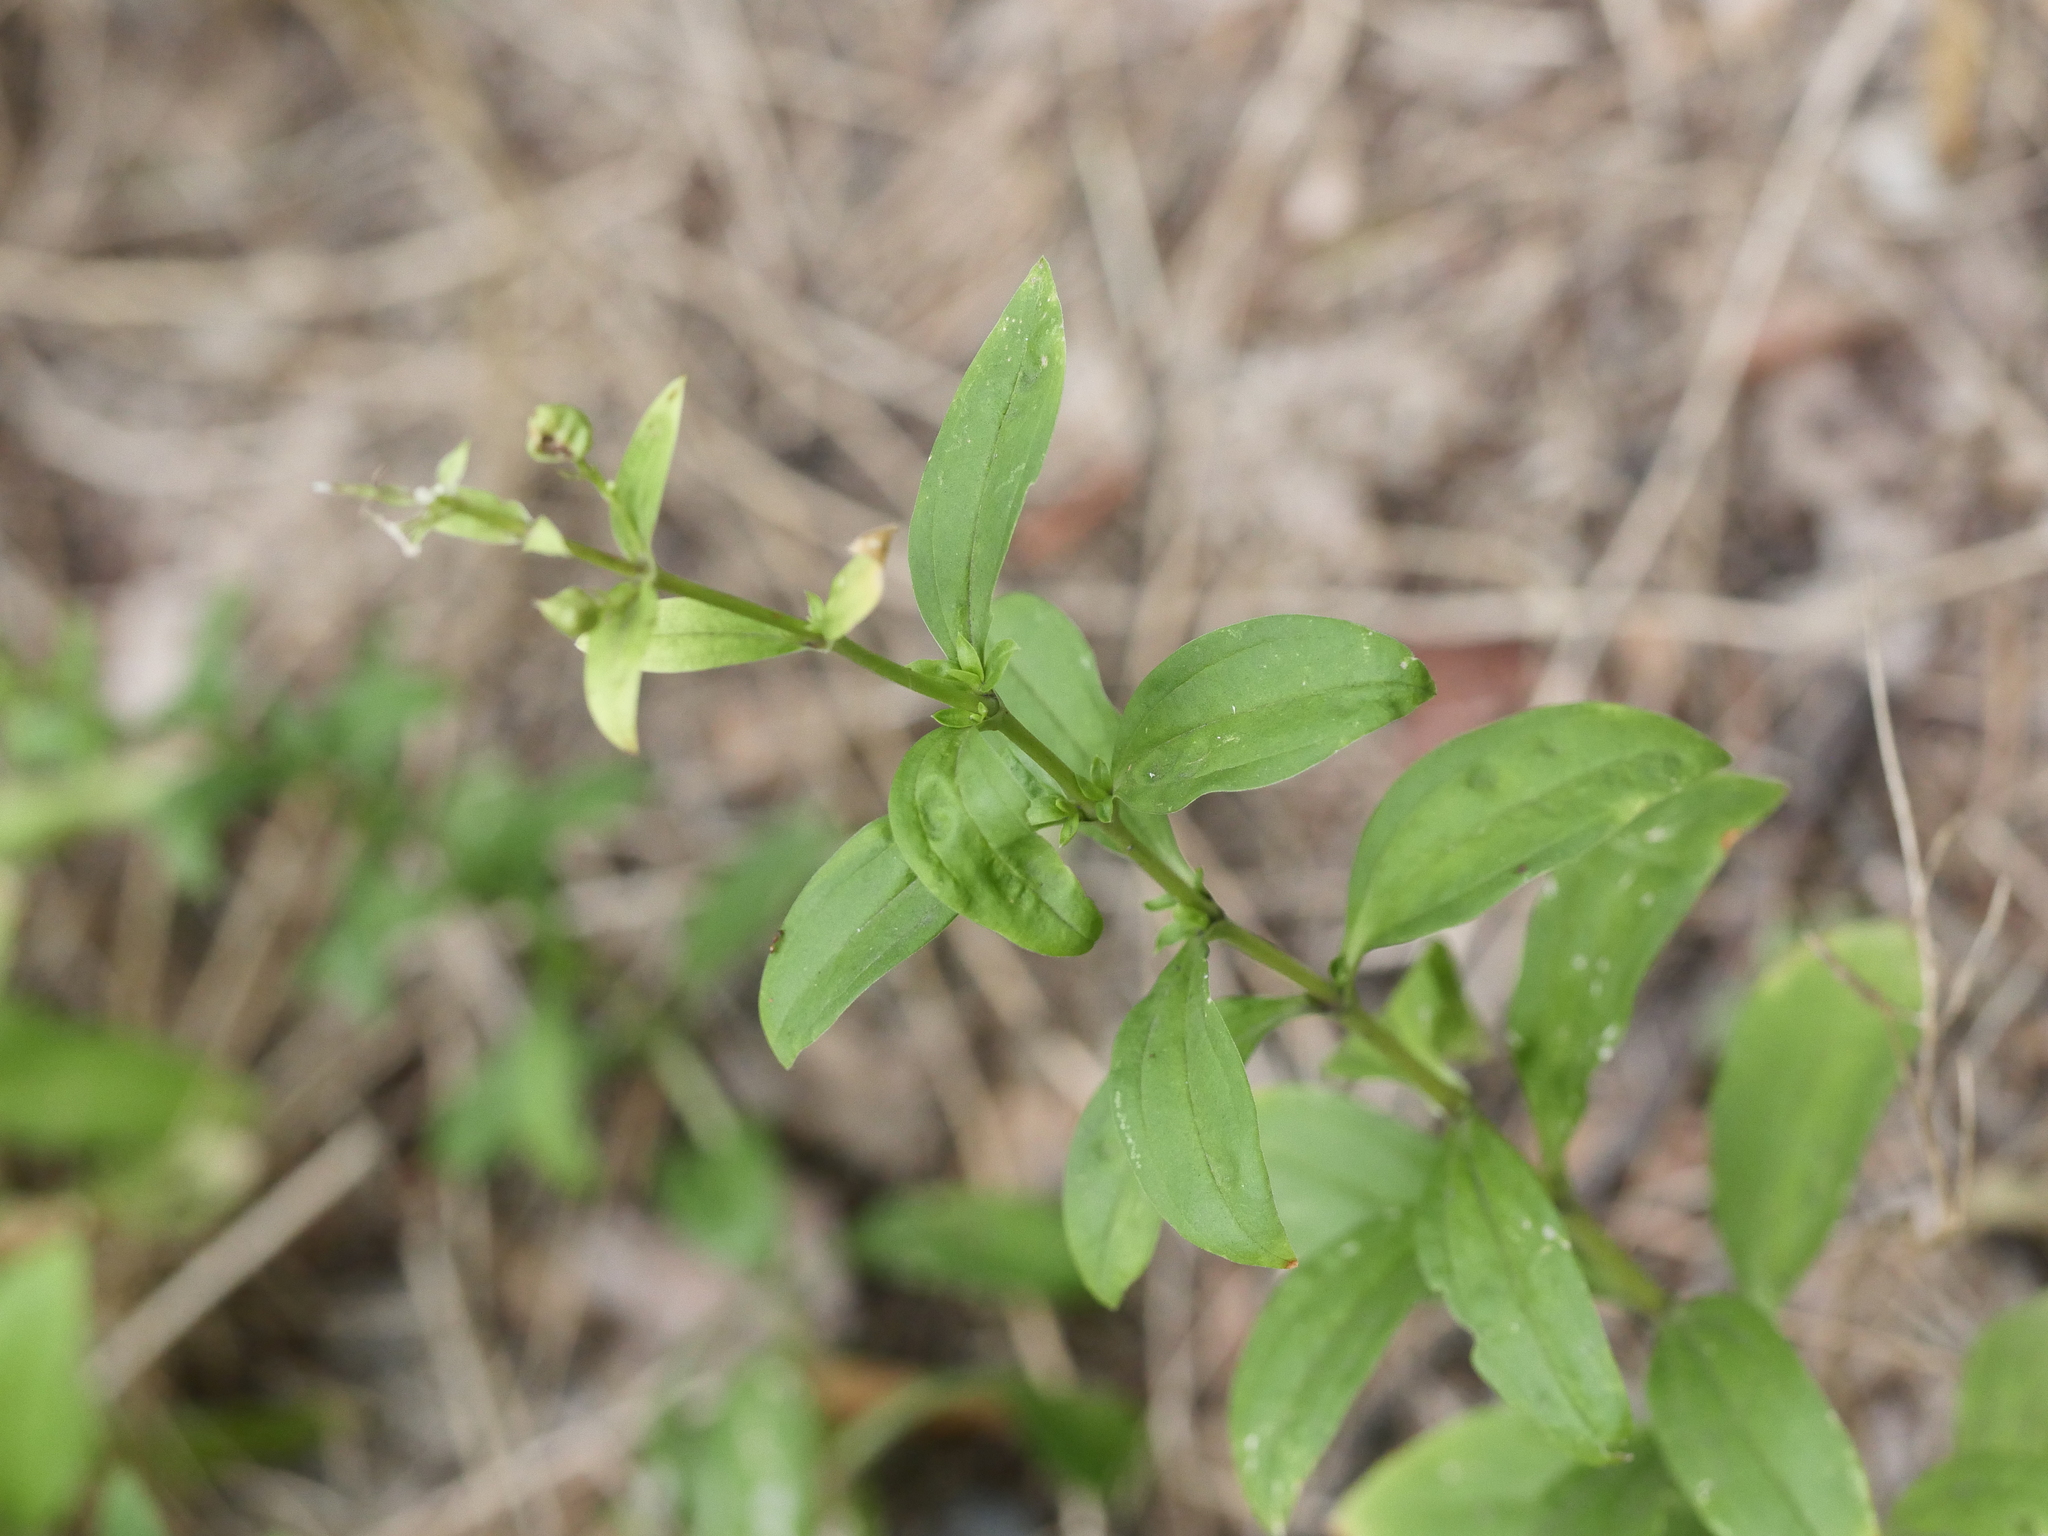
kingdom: Plantae
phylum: Tracheophyta
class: Magnoliopsida
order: Caryophyllales
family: Caryophyllaceae
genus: Saponaria
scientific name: Saponaria officinalis
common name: Soapwort
